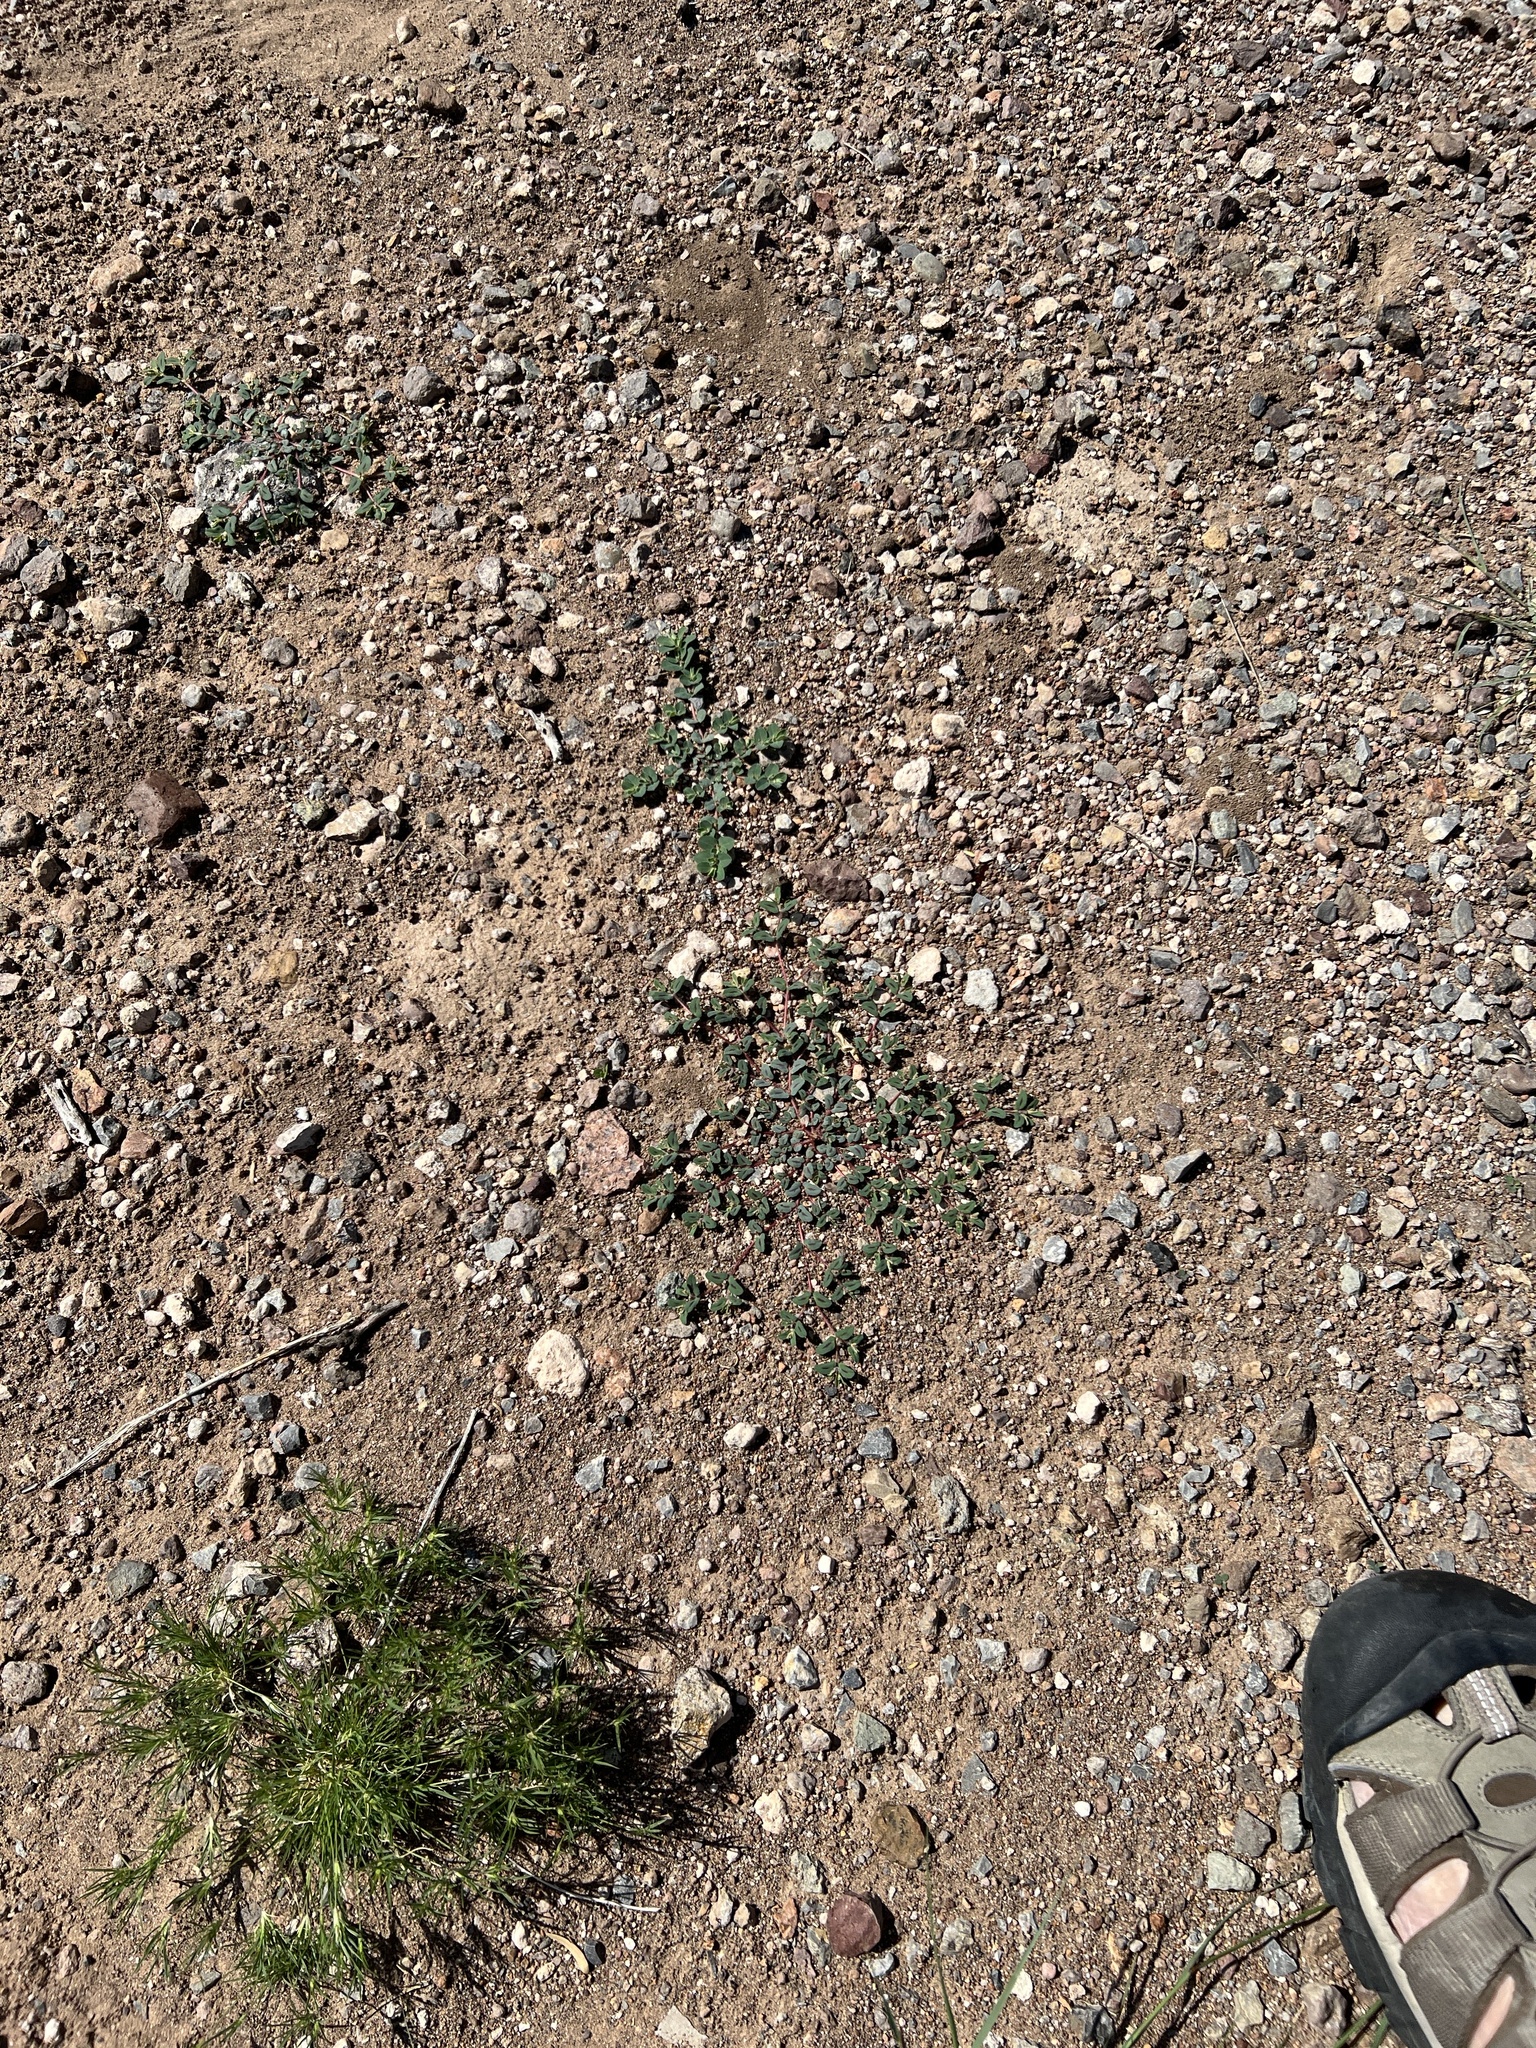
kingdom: Plantae
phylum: Tracheophyta
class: Magnoliopsida
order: Malpighiales
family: Euphorbiaceae
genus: Euphorbia
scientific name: Euphorbia serrula
